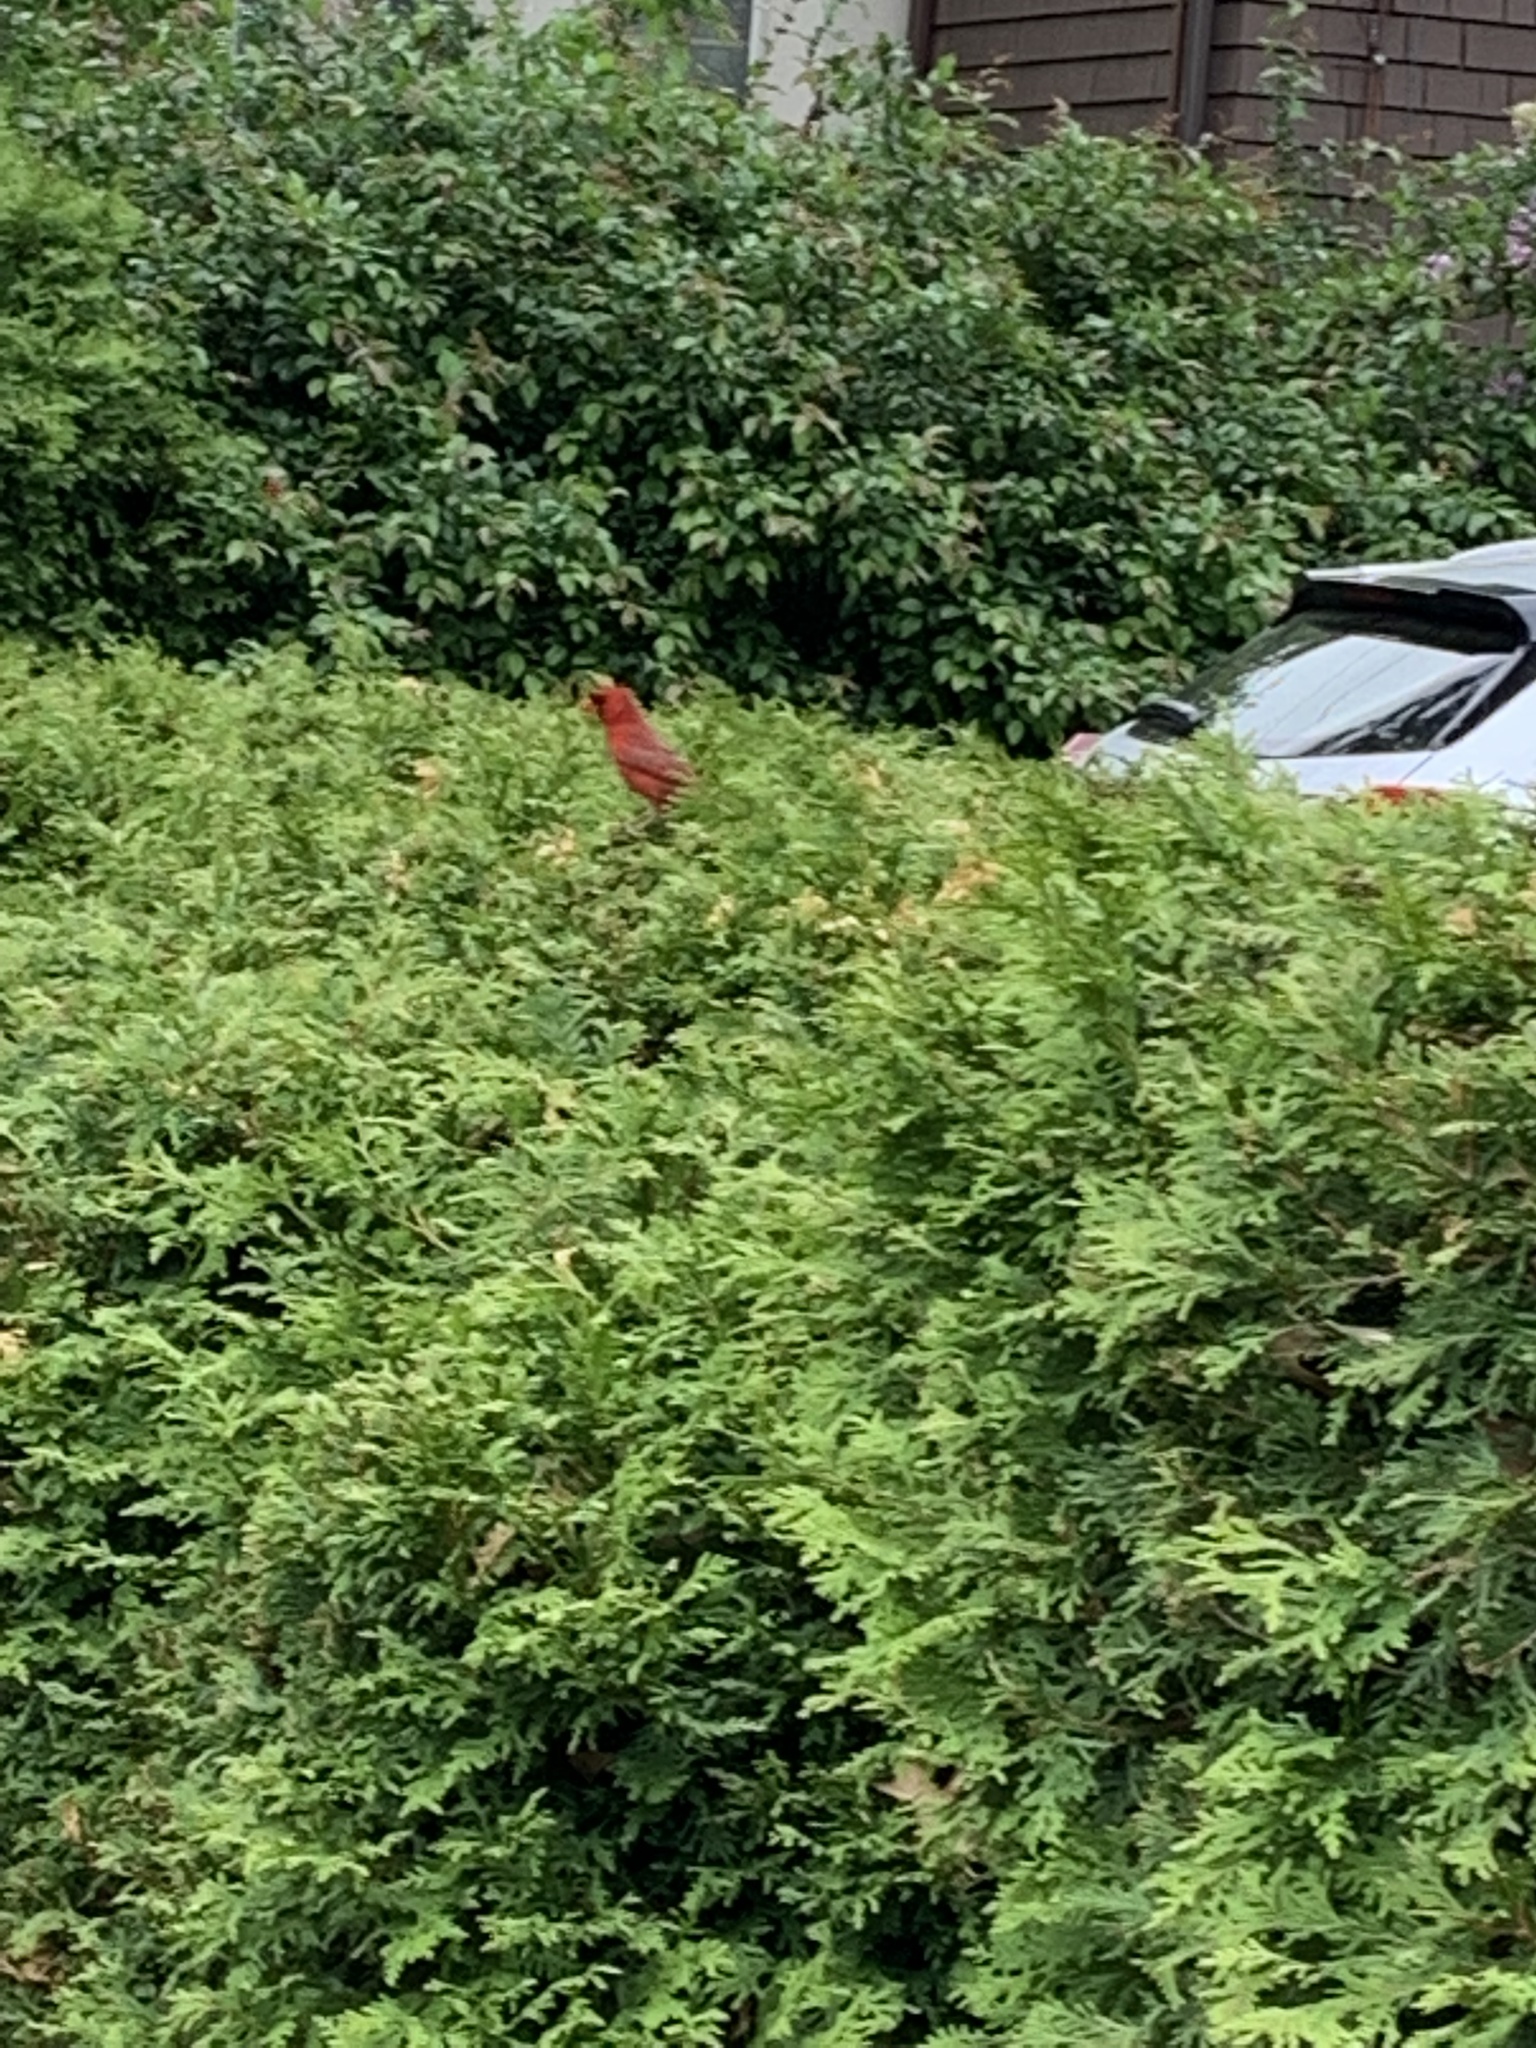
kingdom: Animalia
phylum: Chordata
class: Aves
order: Passeriformes
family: Cardinalidae
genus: Cardinalis
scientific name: Cardinalis cardinalis
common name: Northern cardinal
